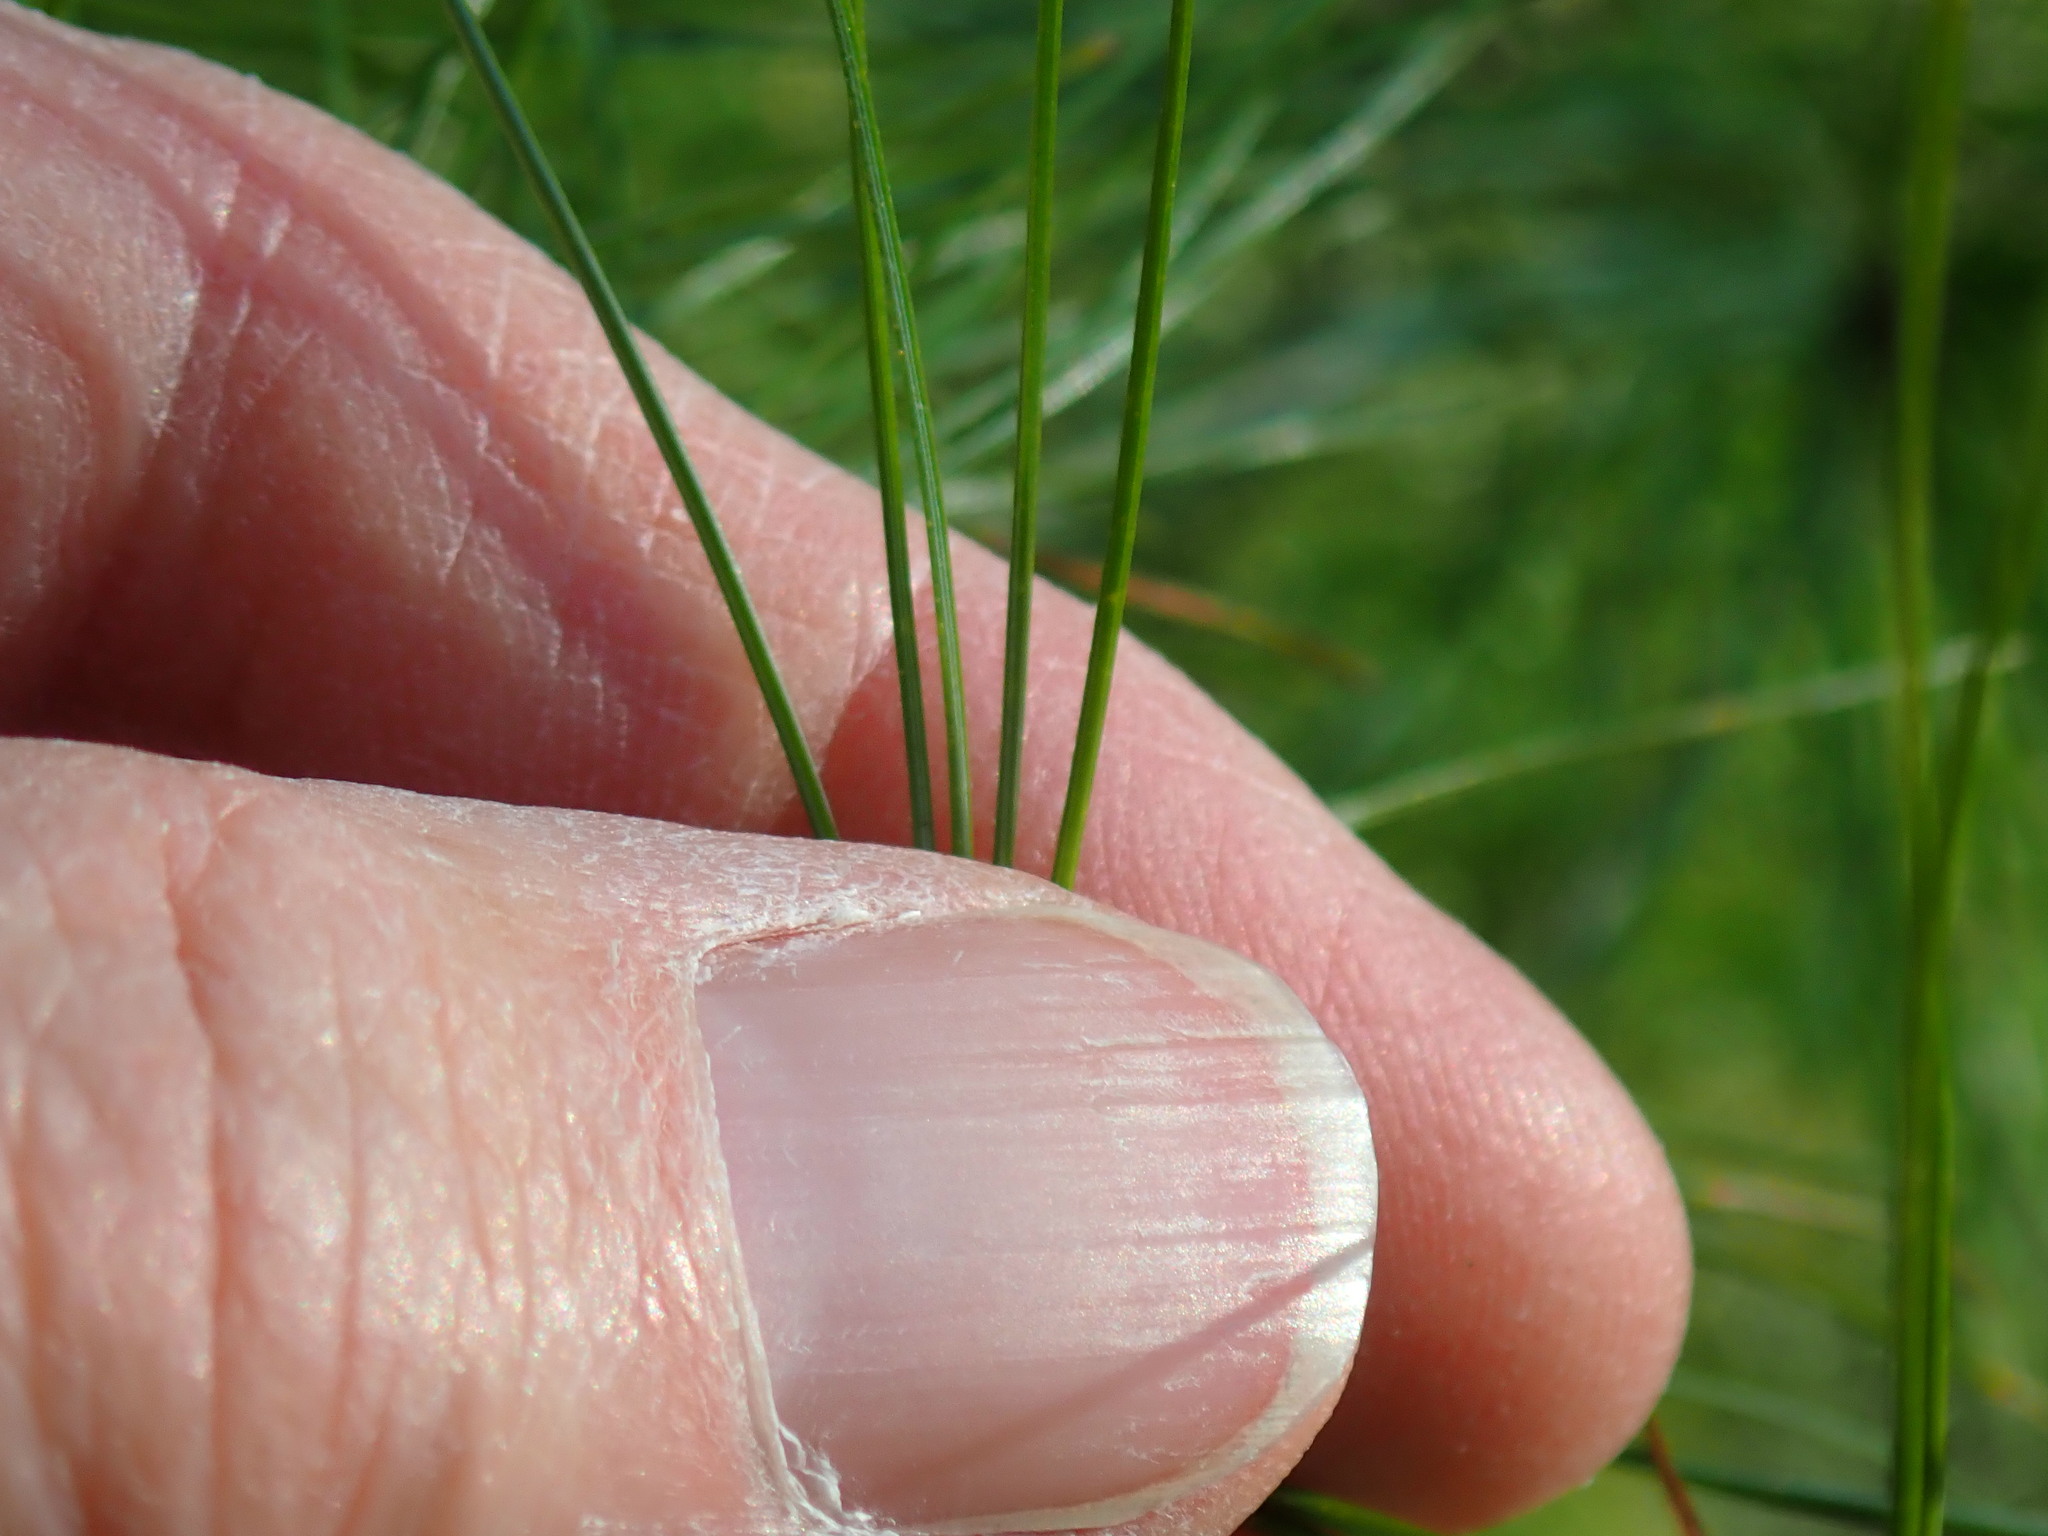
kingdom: Plantae
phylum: Tracheophyta
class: Pinopsida
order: Pinales
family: Pinaceae
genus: Pinus
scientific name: Pinus strobus
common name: Weymouth pine
